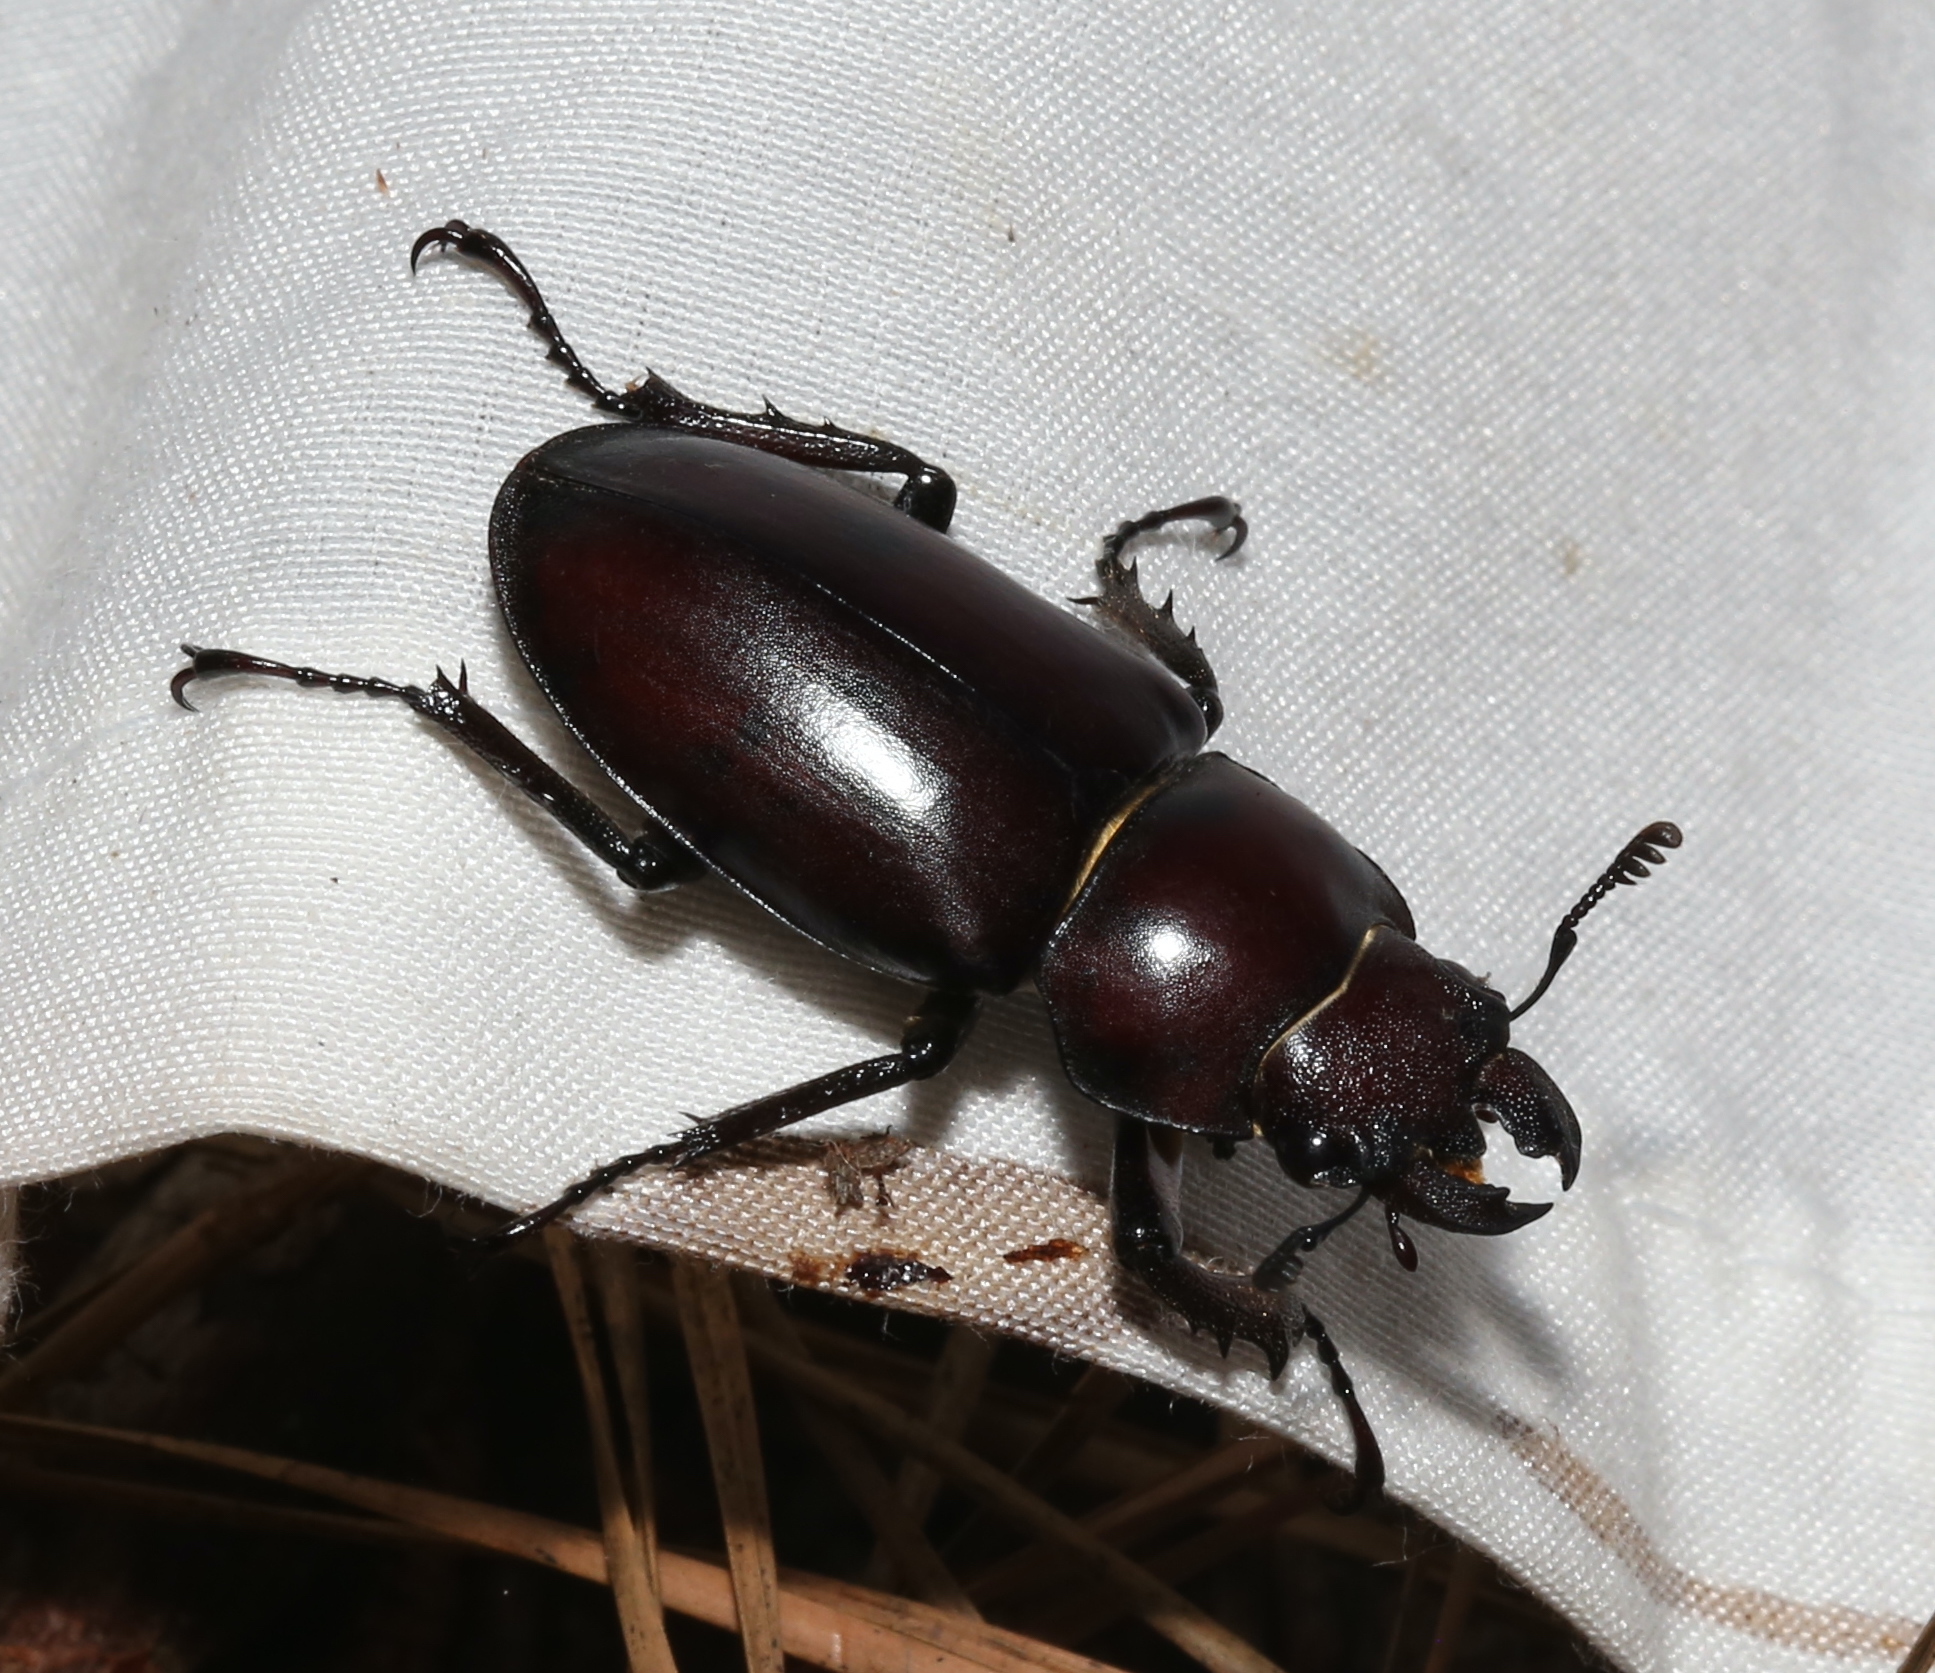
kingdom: Animalia
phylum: Arthropoda
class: Insecta
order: Coleoptera
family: Lucanidae
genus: Lucanus
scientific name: Lucanus elaphus
